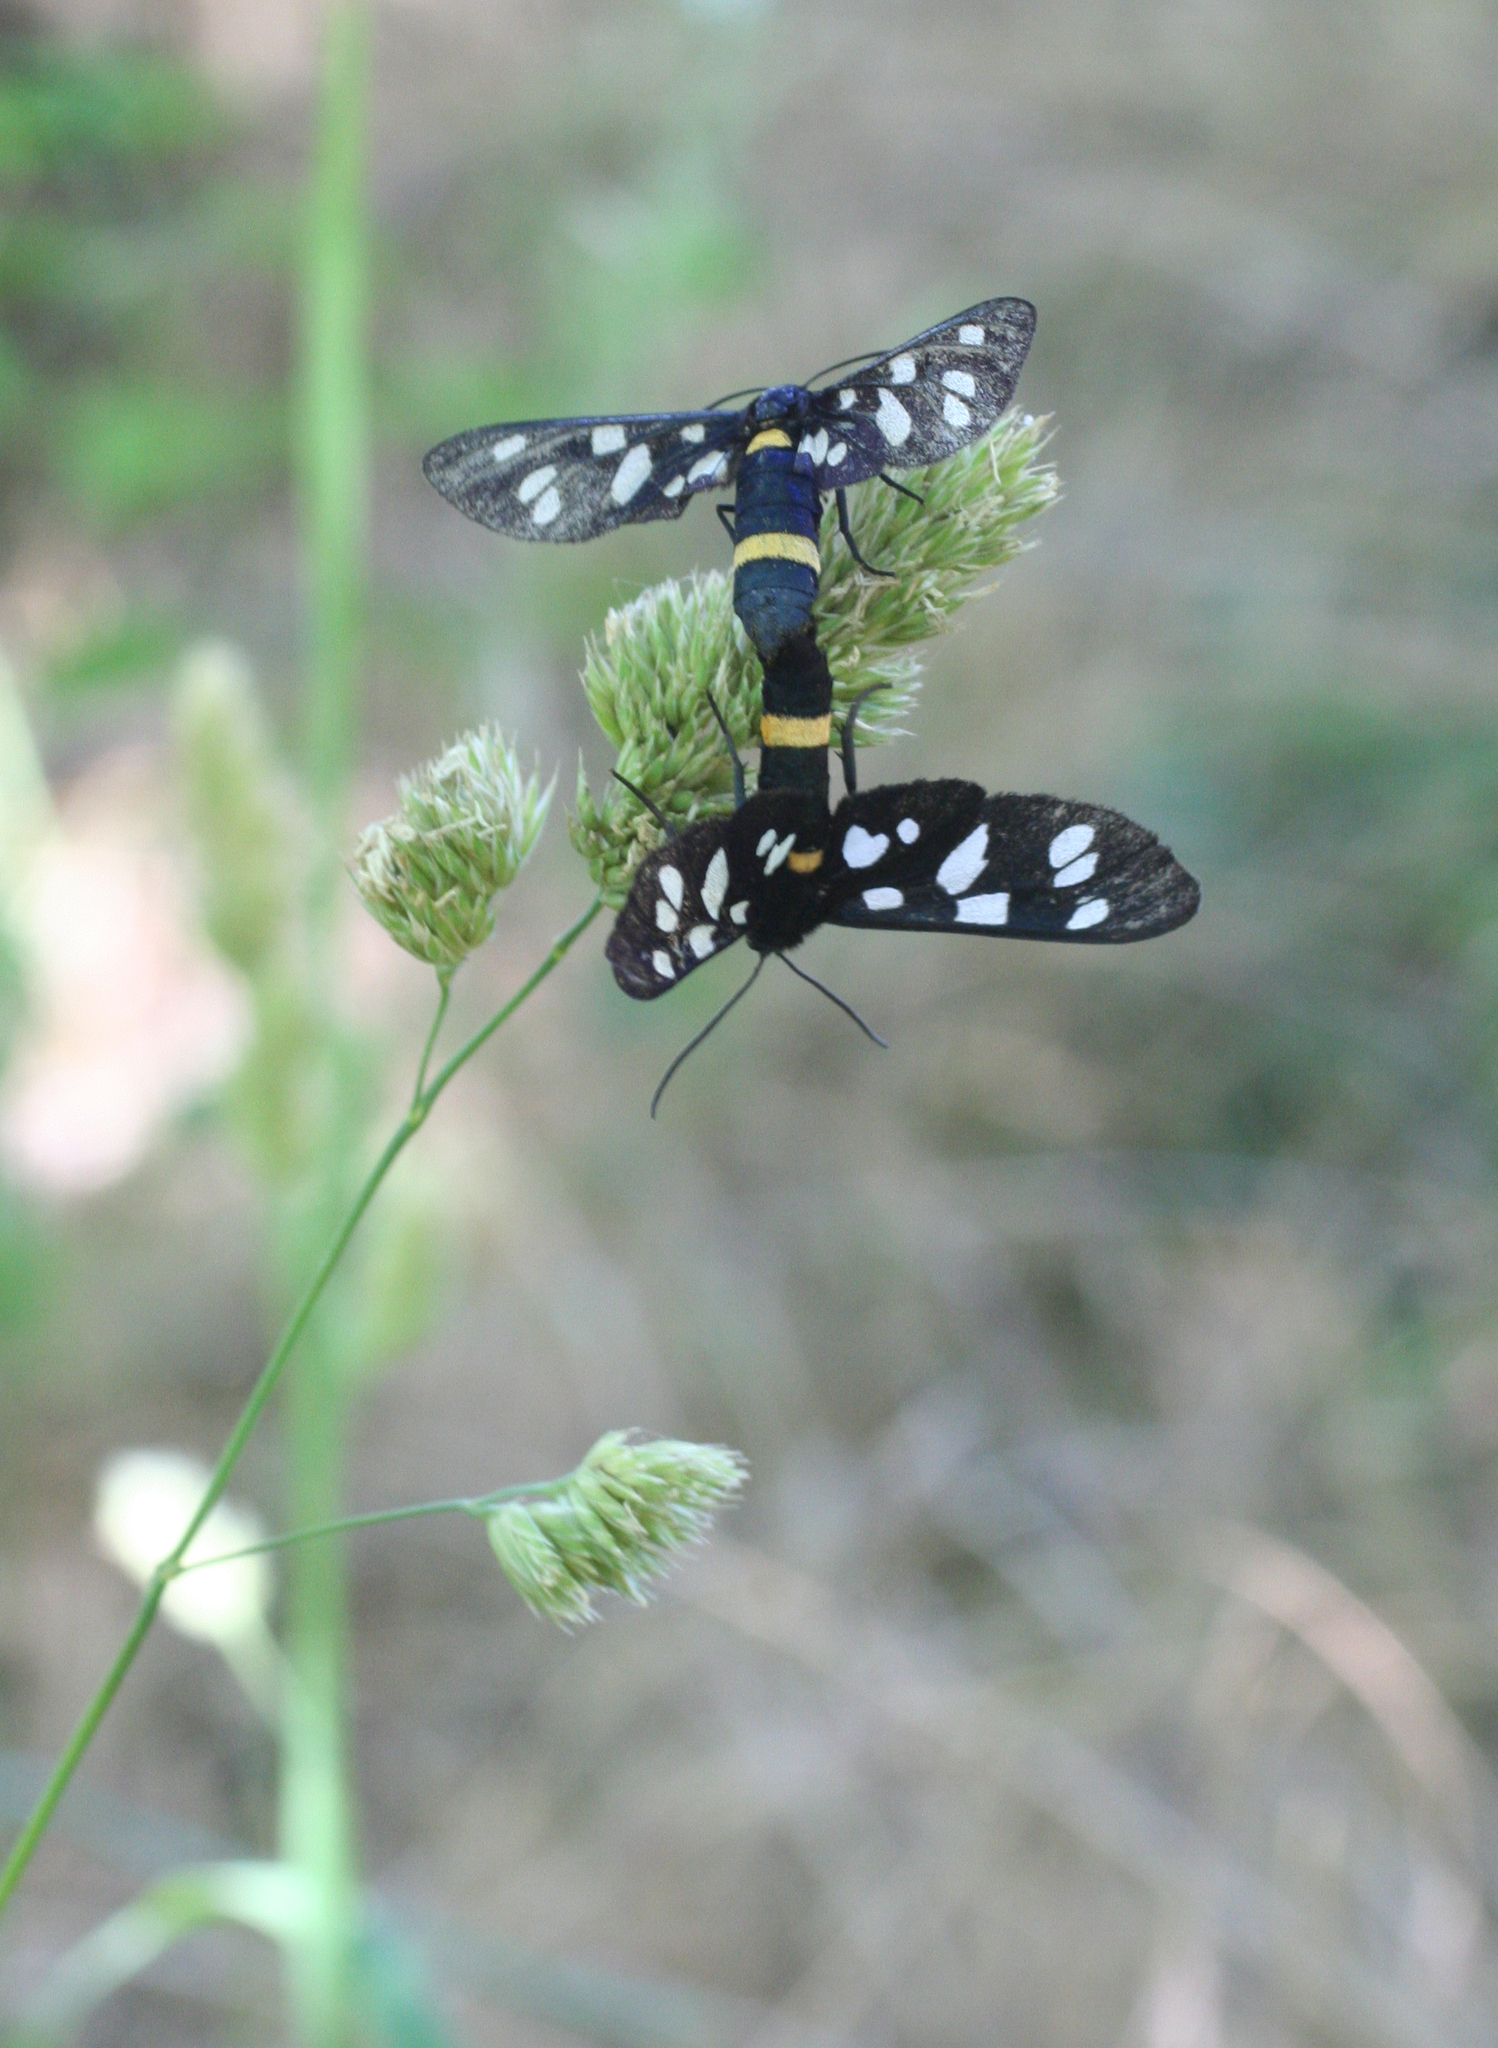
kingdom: Animalia
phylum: Arthropoda
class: Insecta
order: Lepidoptera
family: Erebidae
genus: Amata
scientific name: Amata nigricornis
